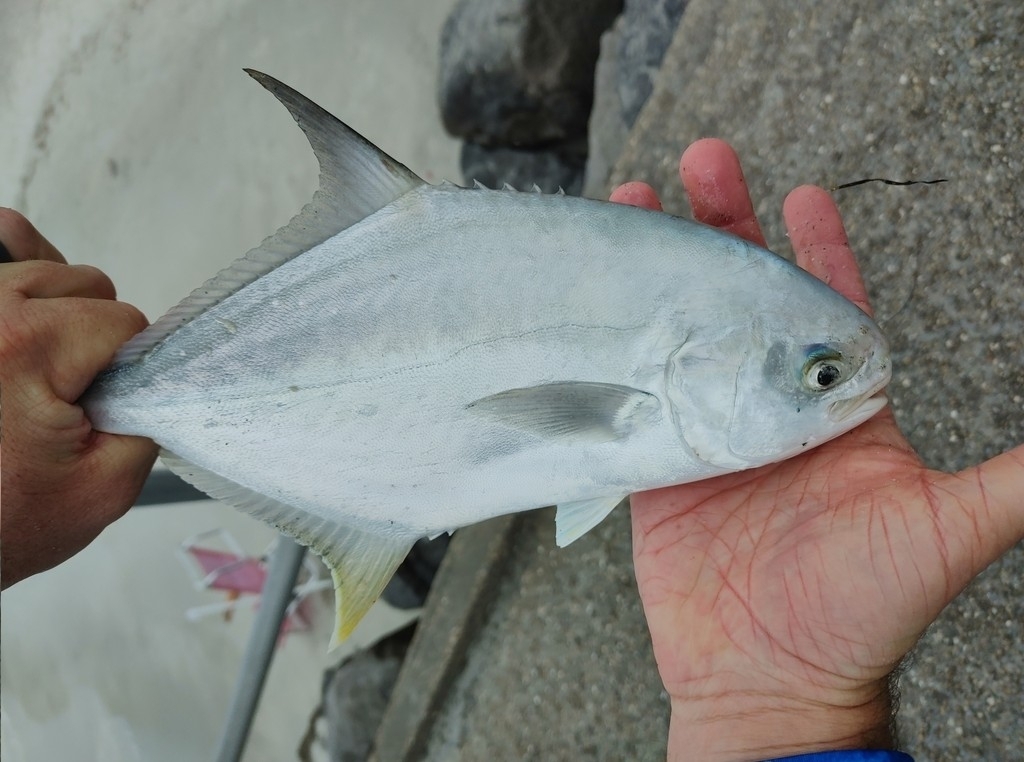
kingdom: Animalia
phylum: Chordata
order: Perciformes
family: Carangidae
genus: Trachinotus
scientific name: Trachinotus carolinus
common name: Florida pompano
